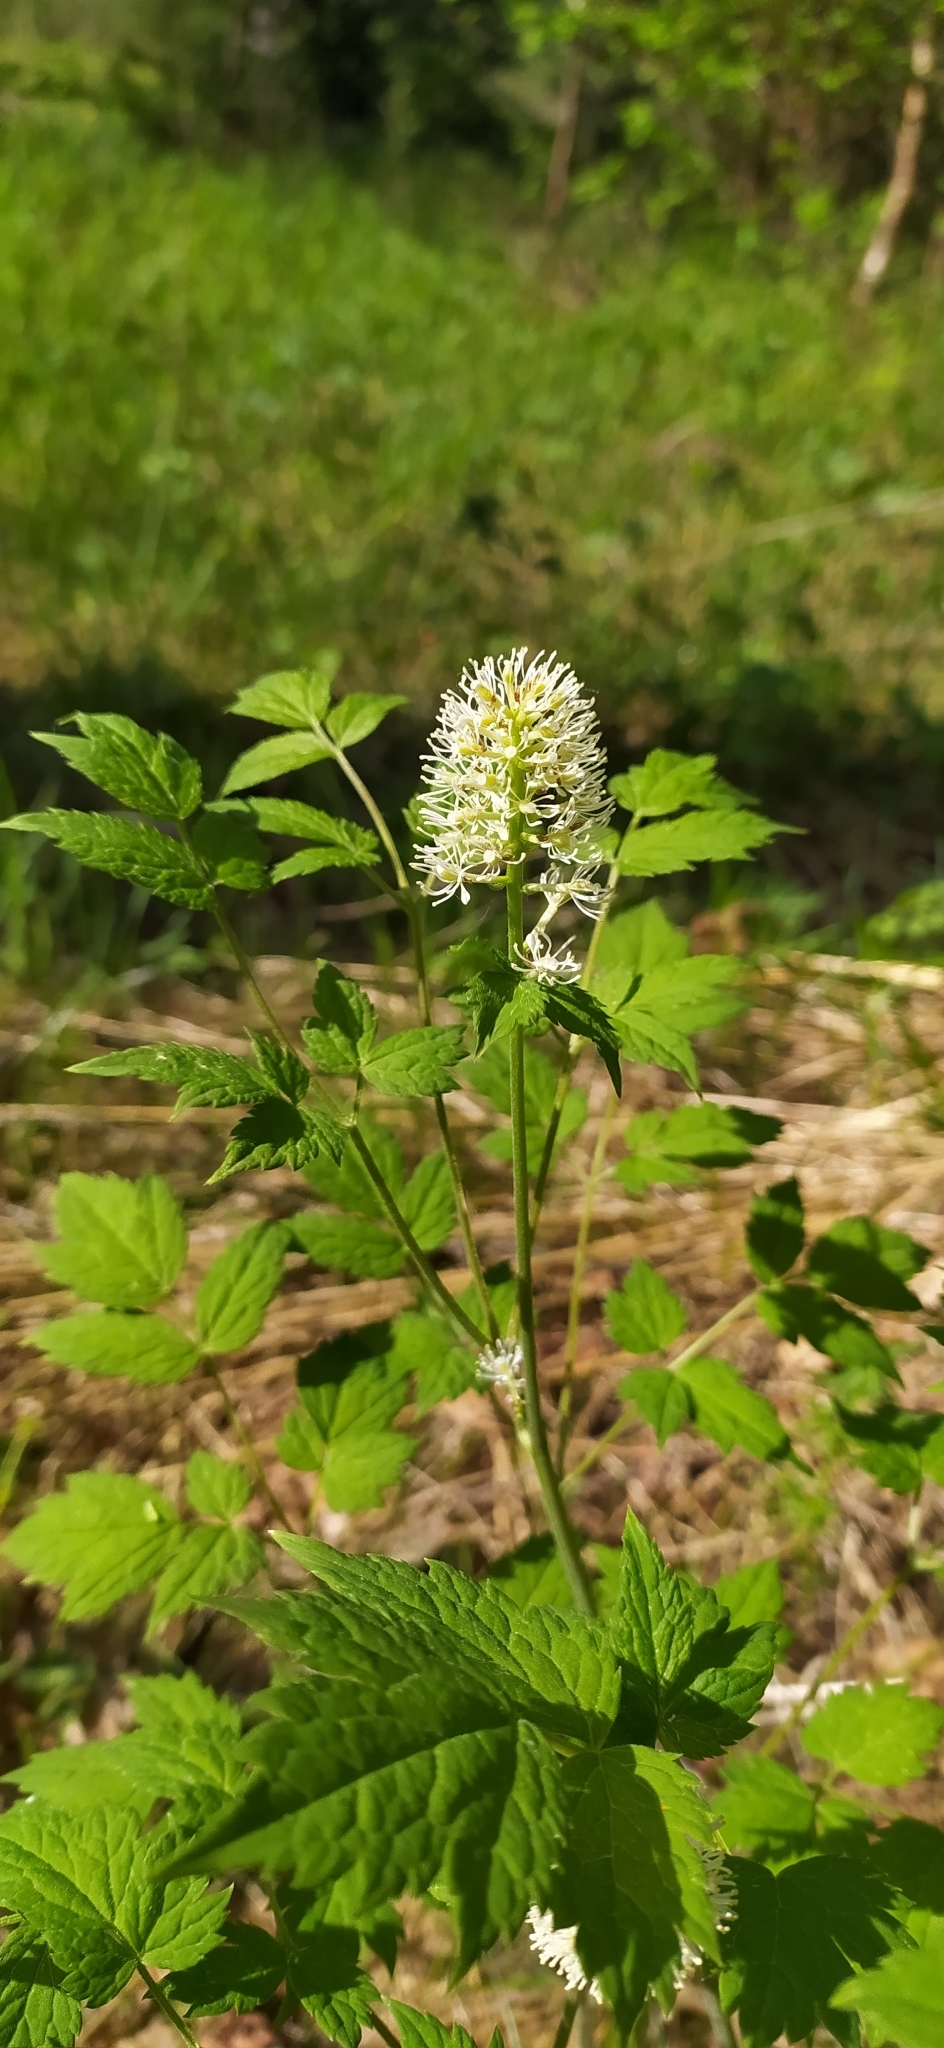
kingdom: Plantae
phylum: Tracheophyta
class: Magnoliopsida
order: Ranunculales
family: Ranunculaceae
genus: Actaea
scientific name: Actaea spicata
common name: Baneberry
